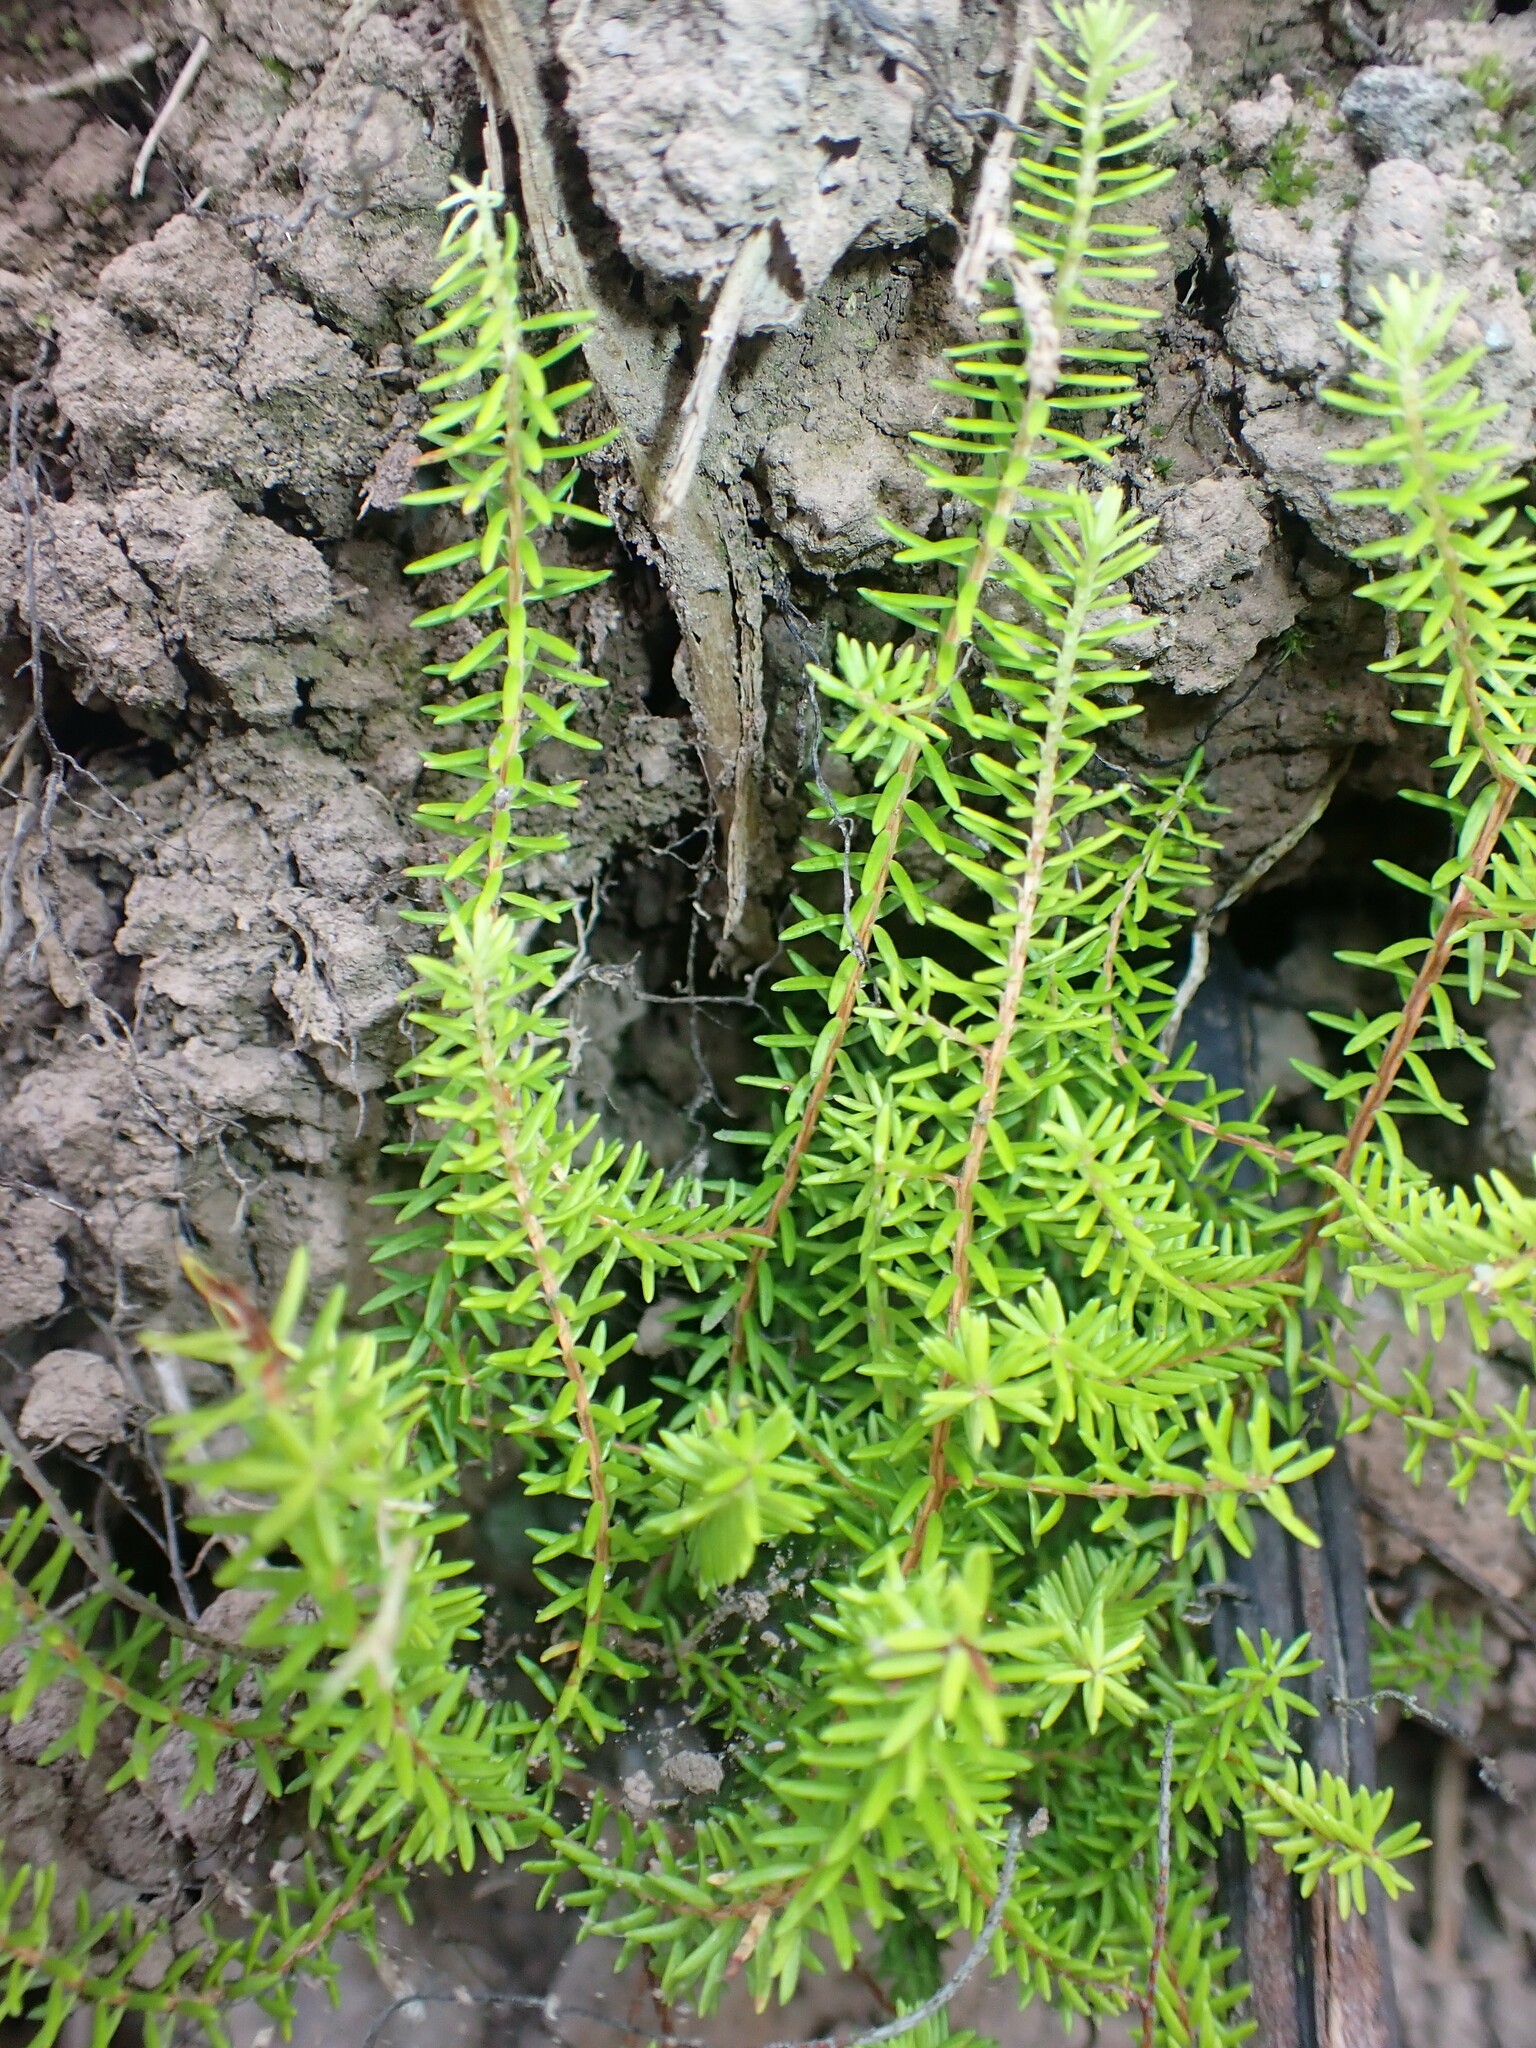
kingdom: Plantae
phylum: Tracheophyta
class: Magnoliopsida
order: Ericales
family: Ericaceae
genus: Erica
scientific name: Erica azorica
